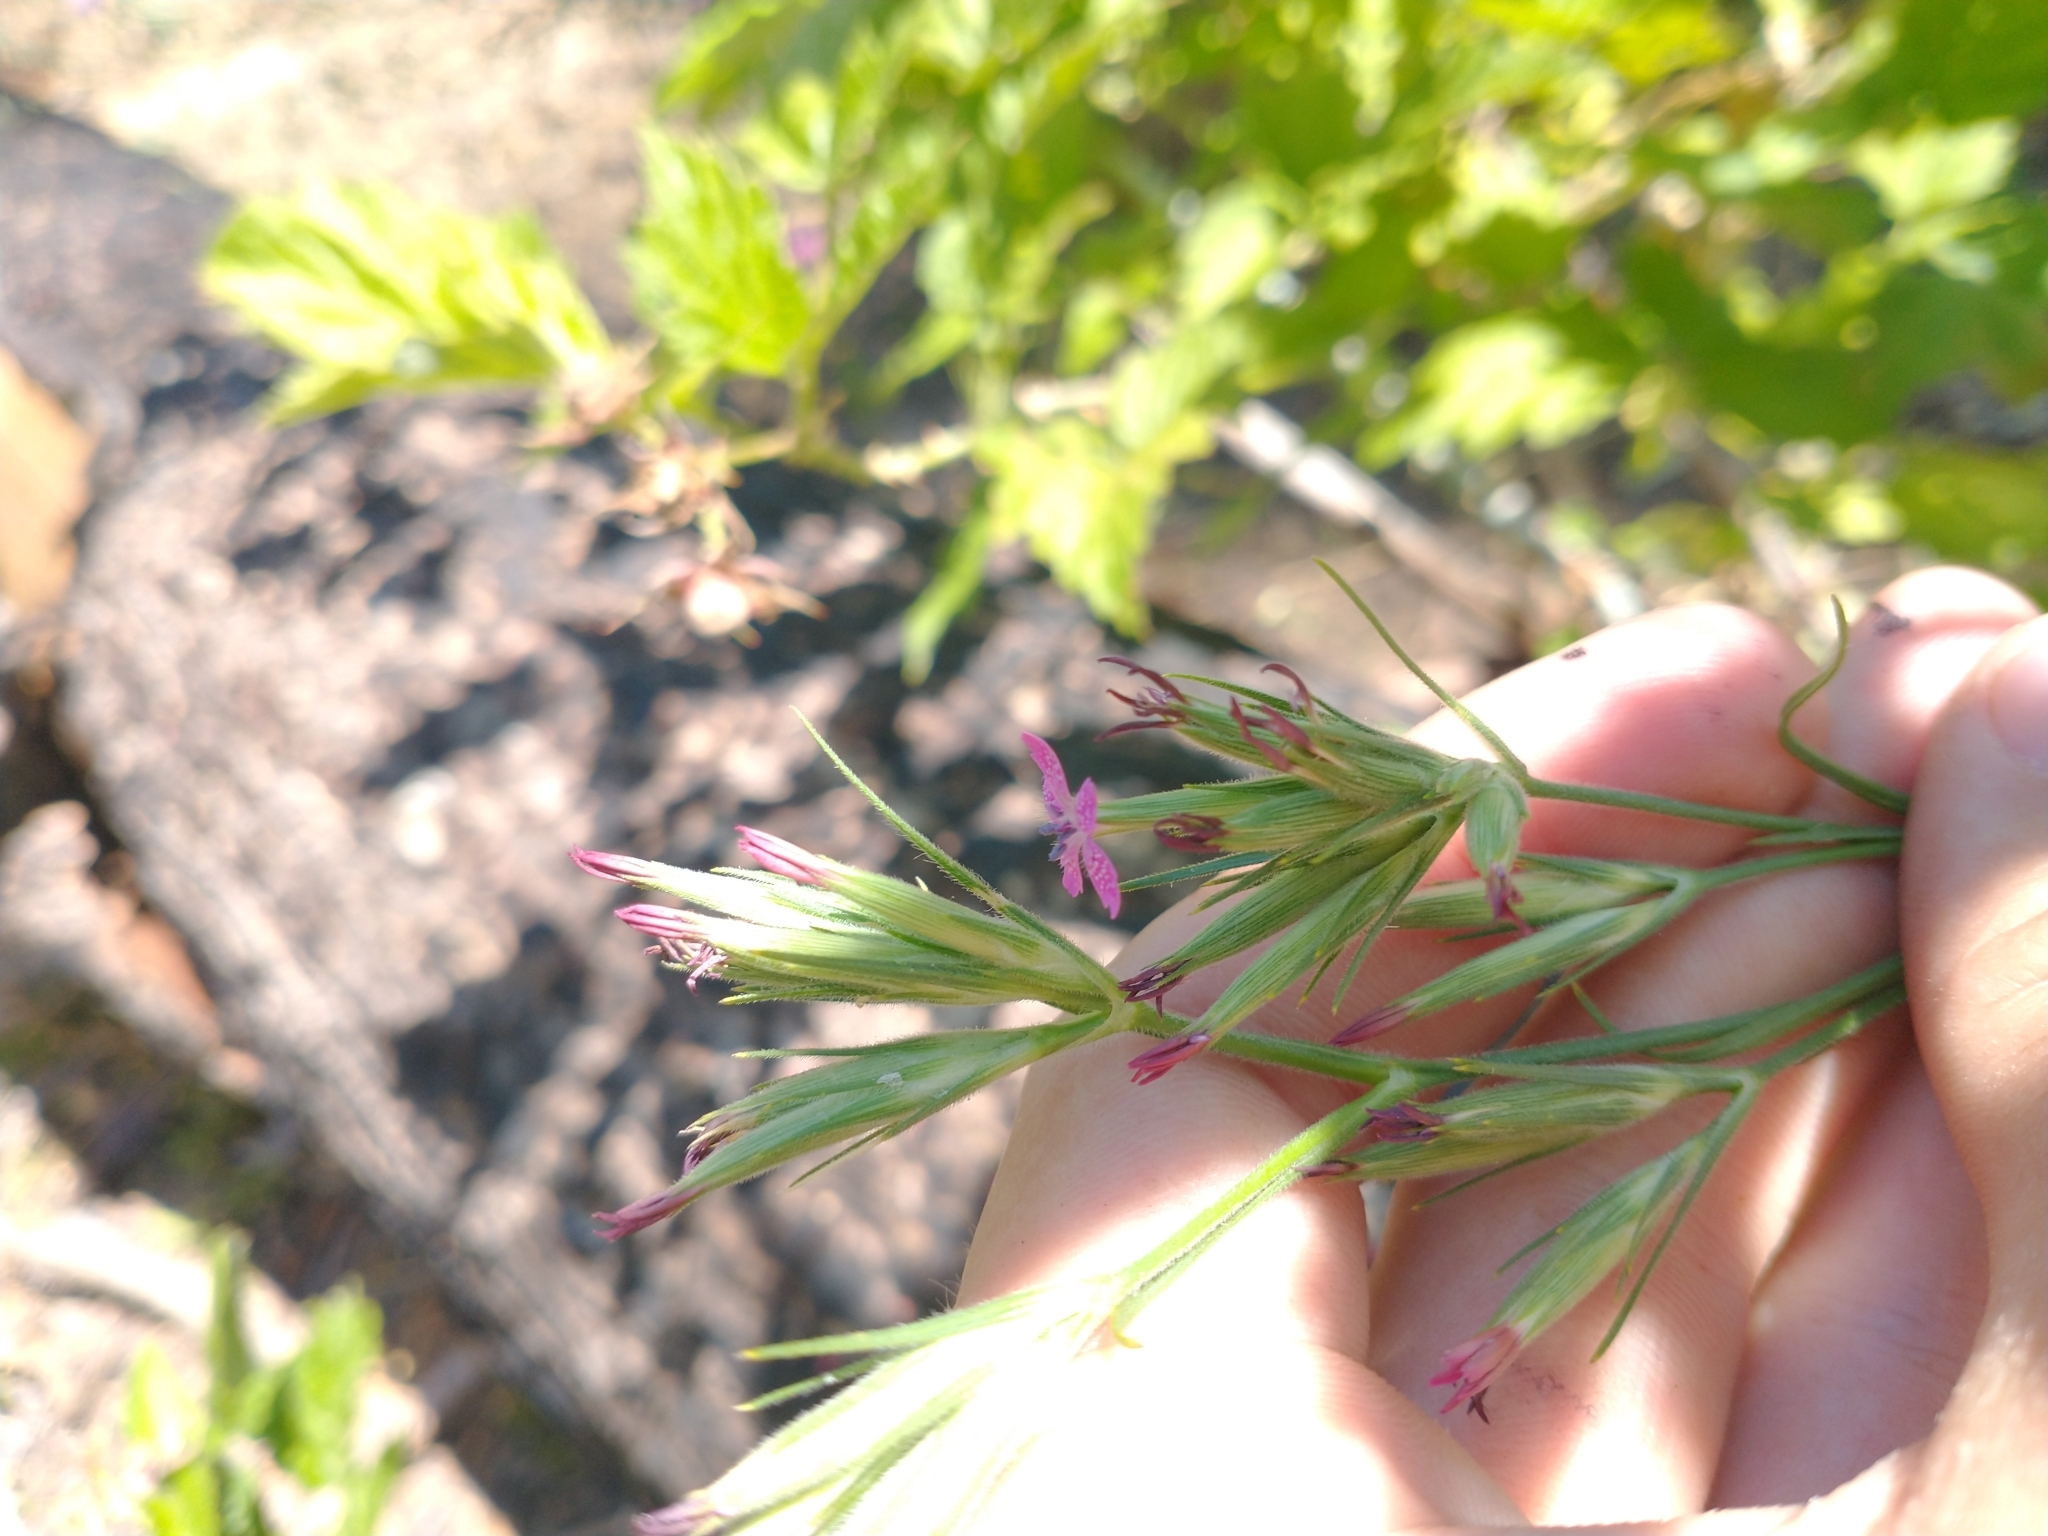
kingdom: Plantae
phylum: Tracheophyta
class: Magnoliopsida
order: Caryophyllales
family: Caryophyllaceae
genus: Dianthus
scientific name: Dianthus armeria
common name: Deptford pink
